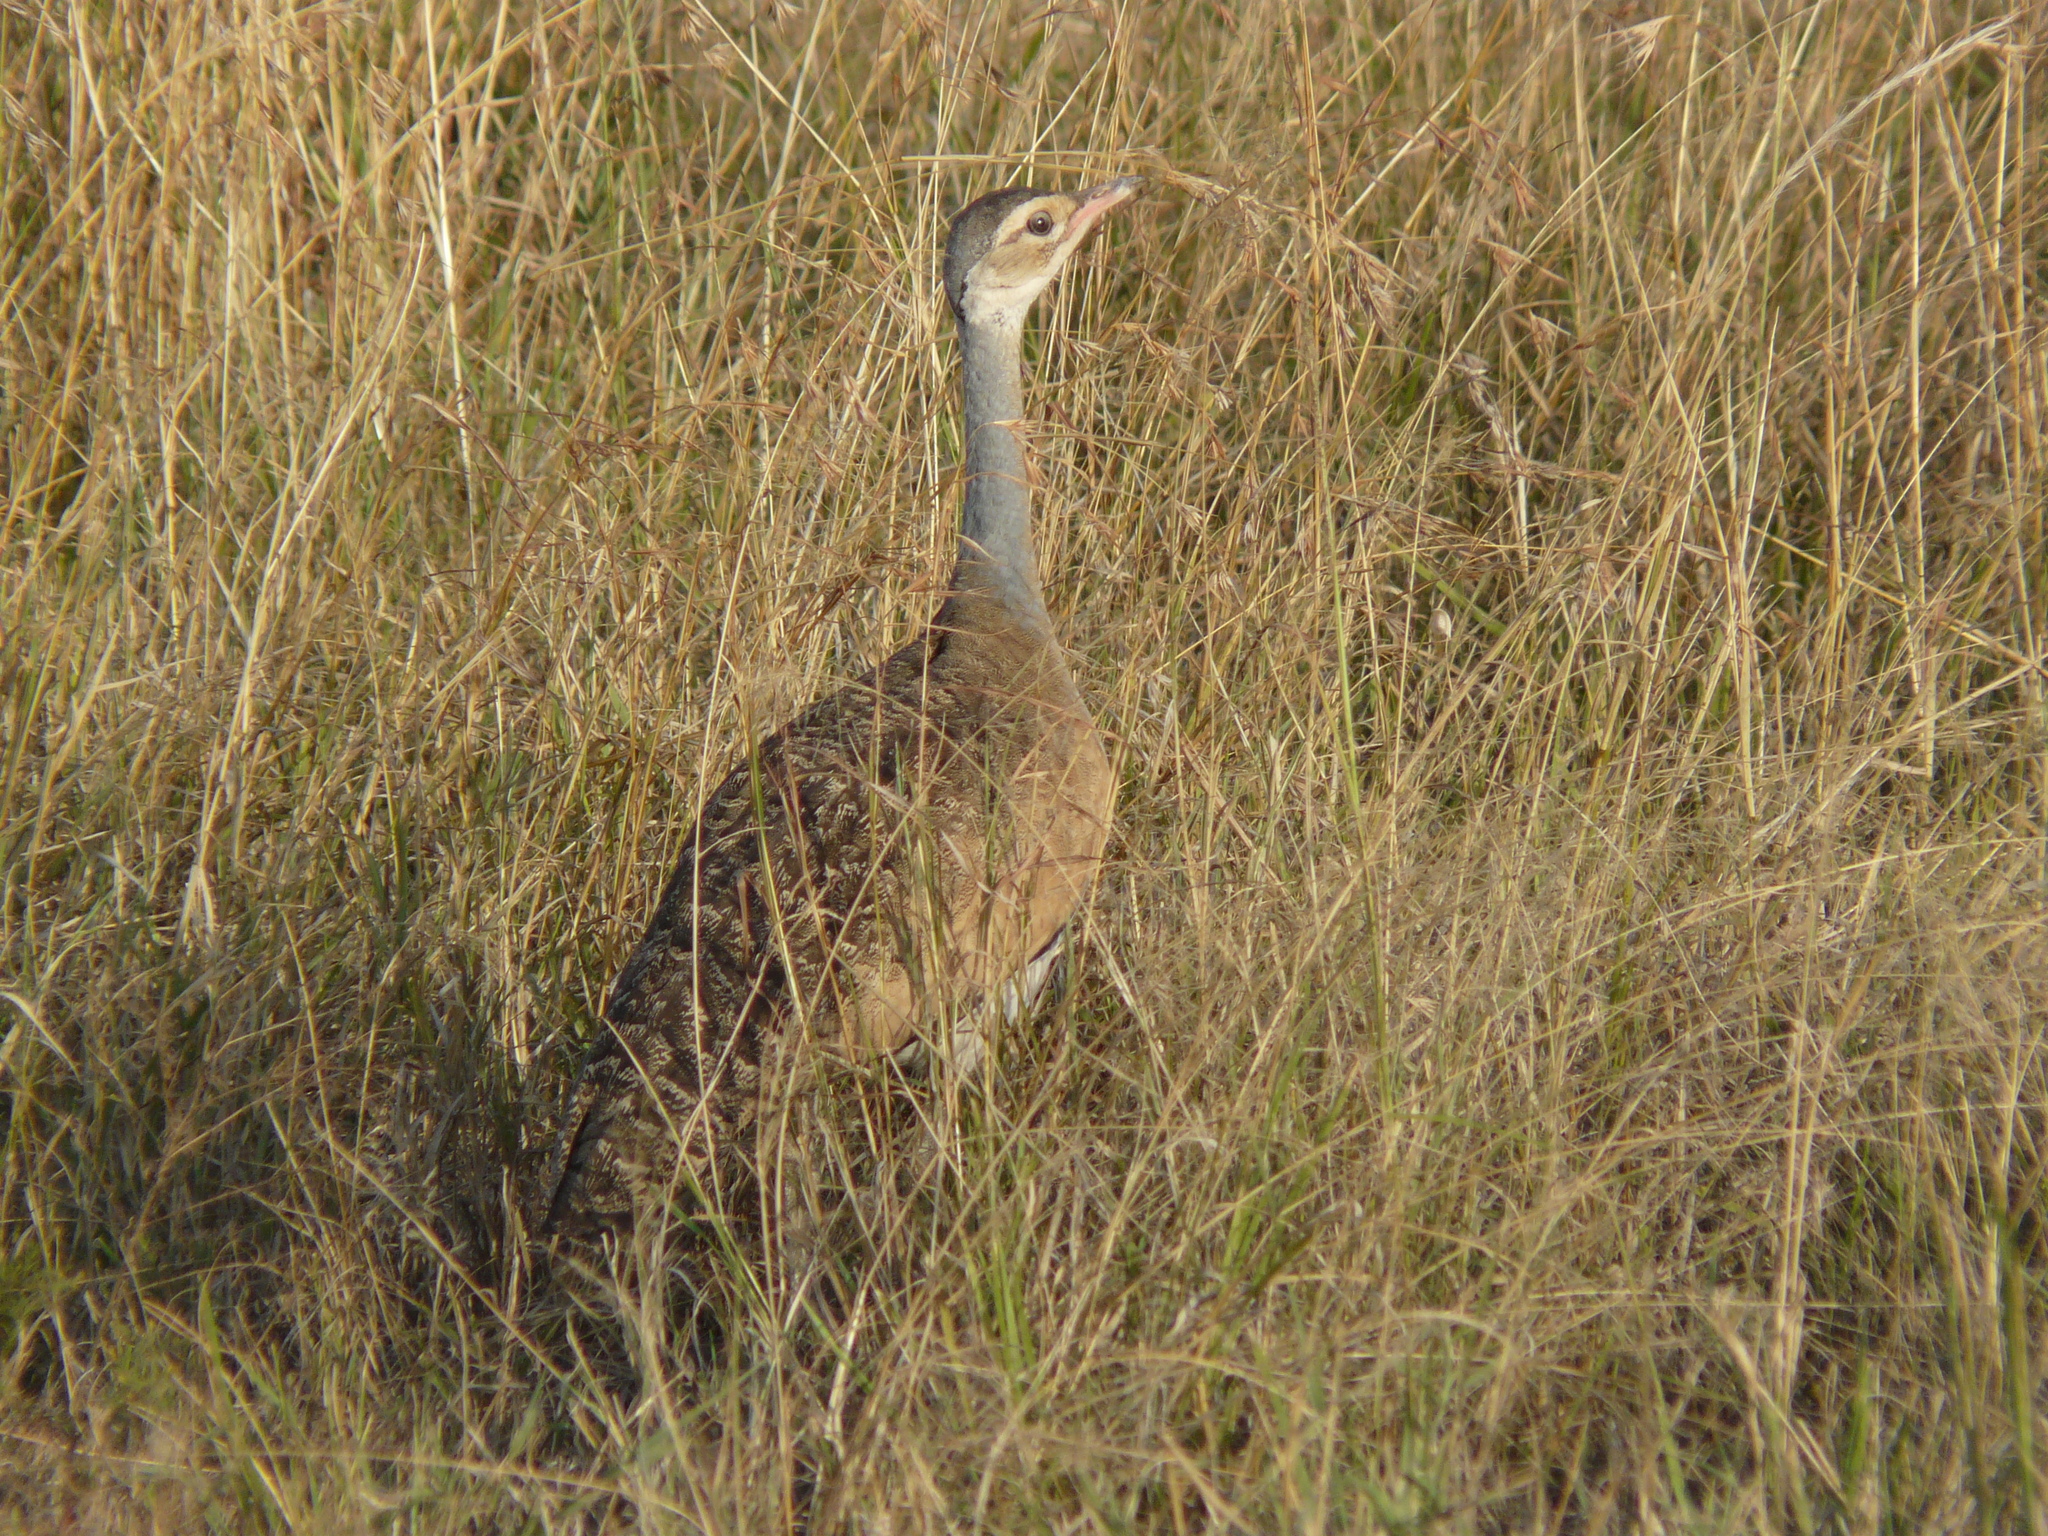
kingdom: Animalia
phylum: Chordata
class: Aves
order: Otidiformes
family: Otididae
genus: Eupodotis
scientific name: Eupodotis senegalensis
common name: White-bellied bustard
